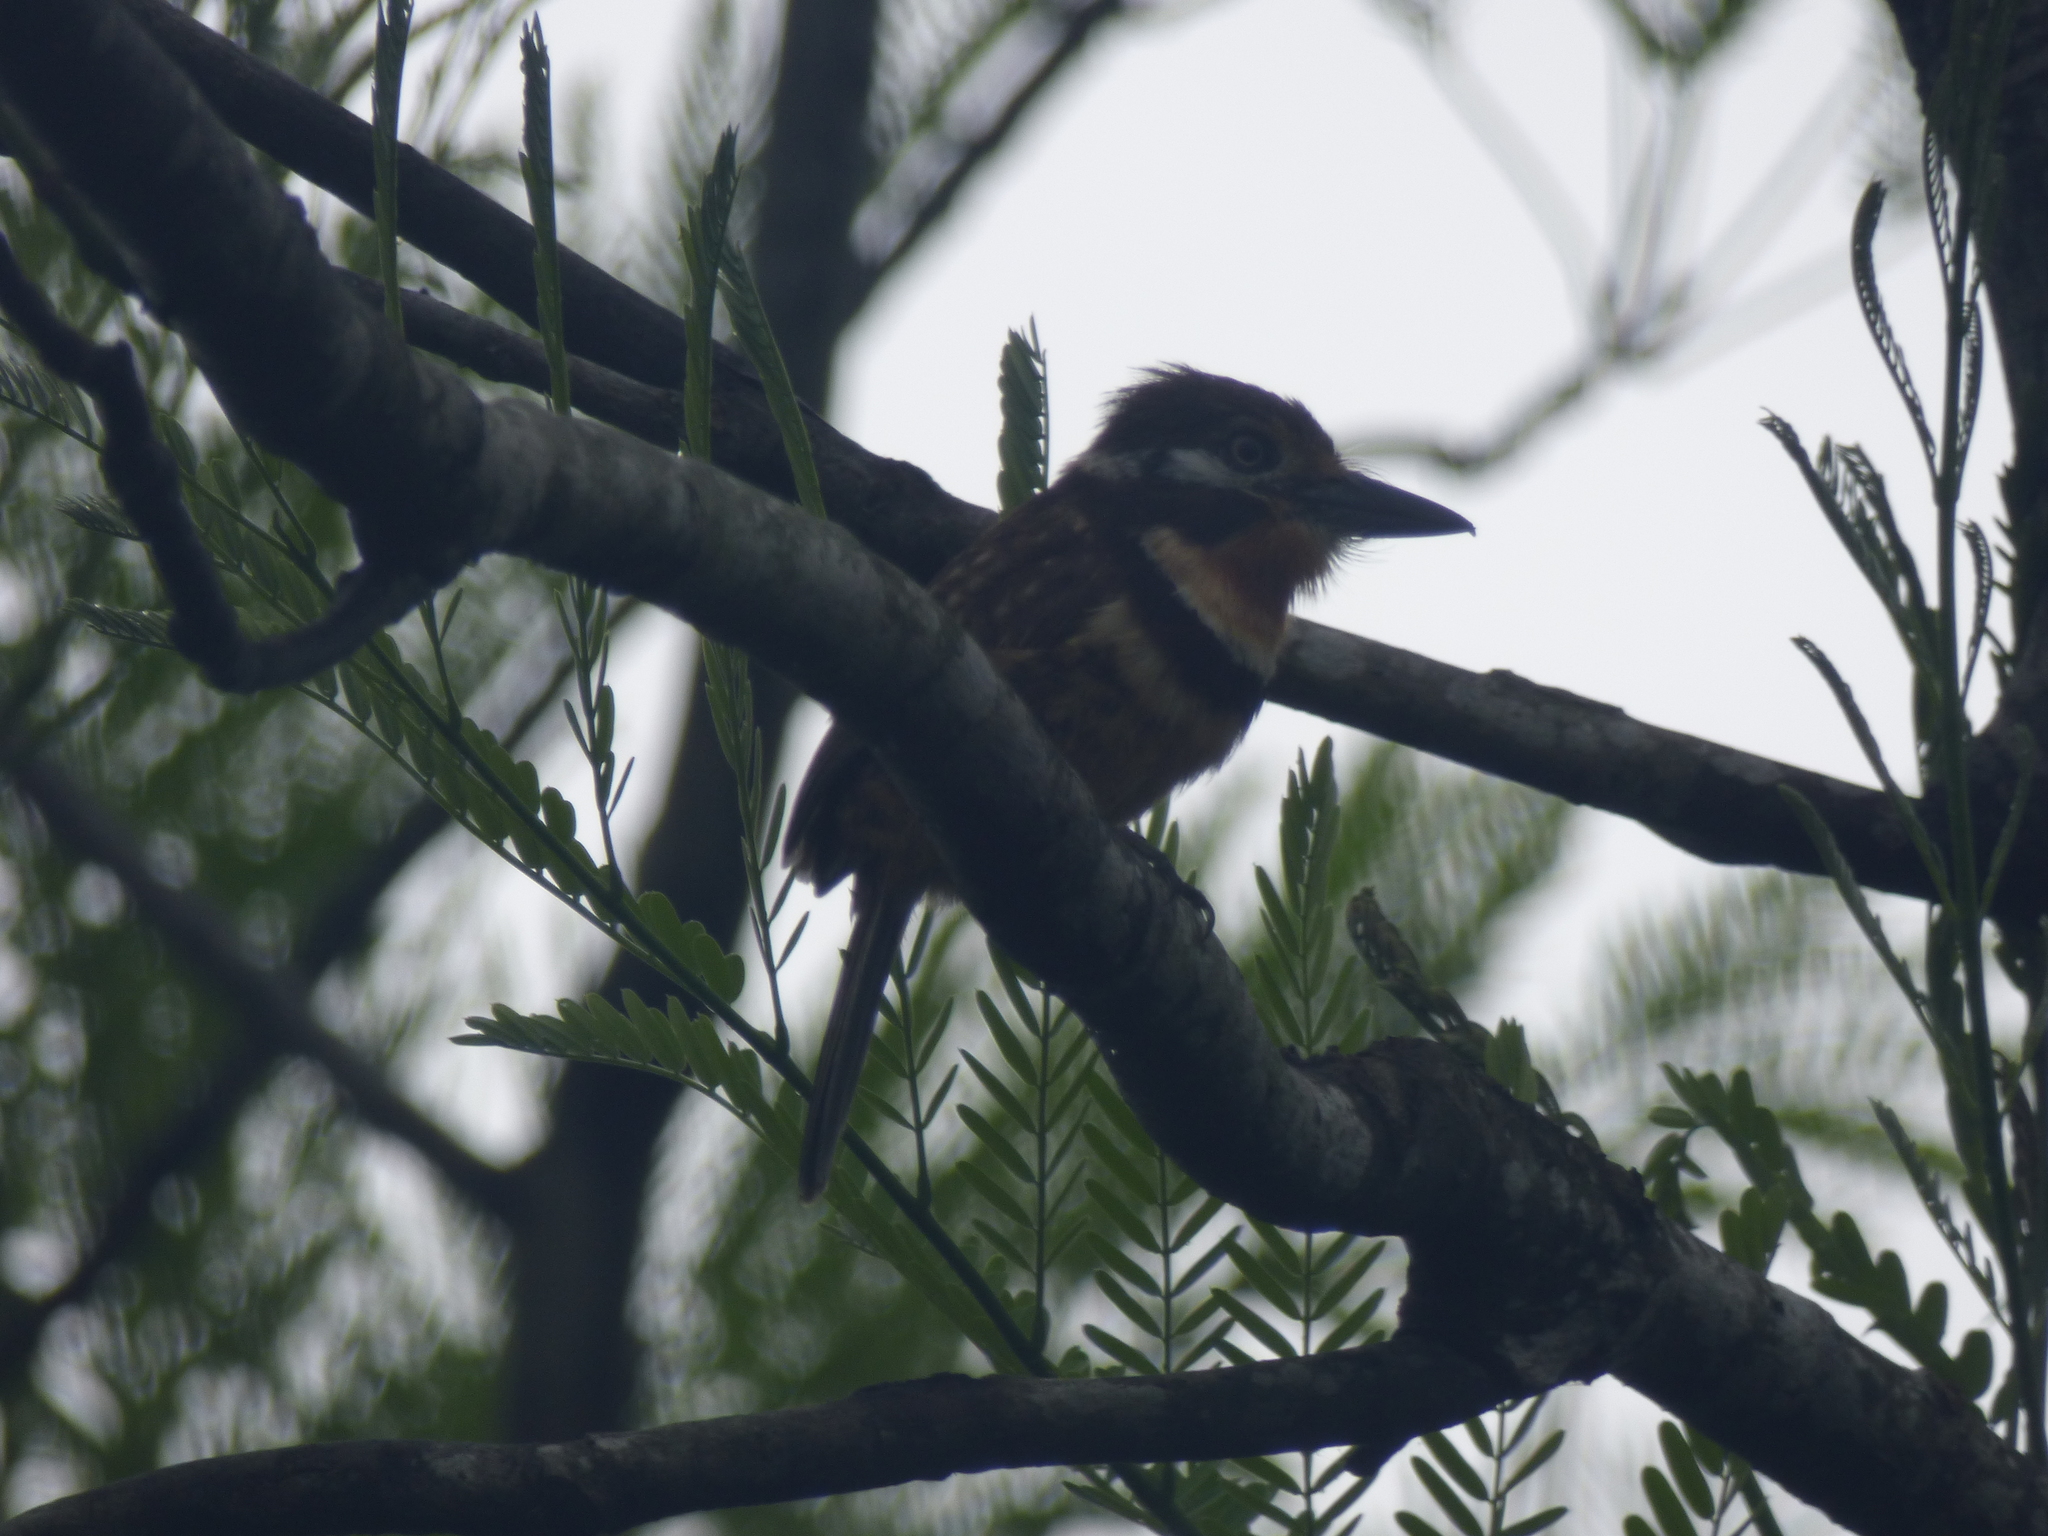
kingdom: Animalia
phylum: Chordata
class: Aves
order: Piciformes
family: Bucconidae
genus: Hypnelus
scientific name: Hypnelus ruficollis
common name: Russet-throated puffbird
